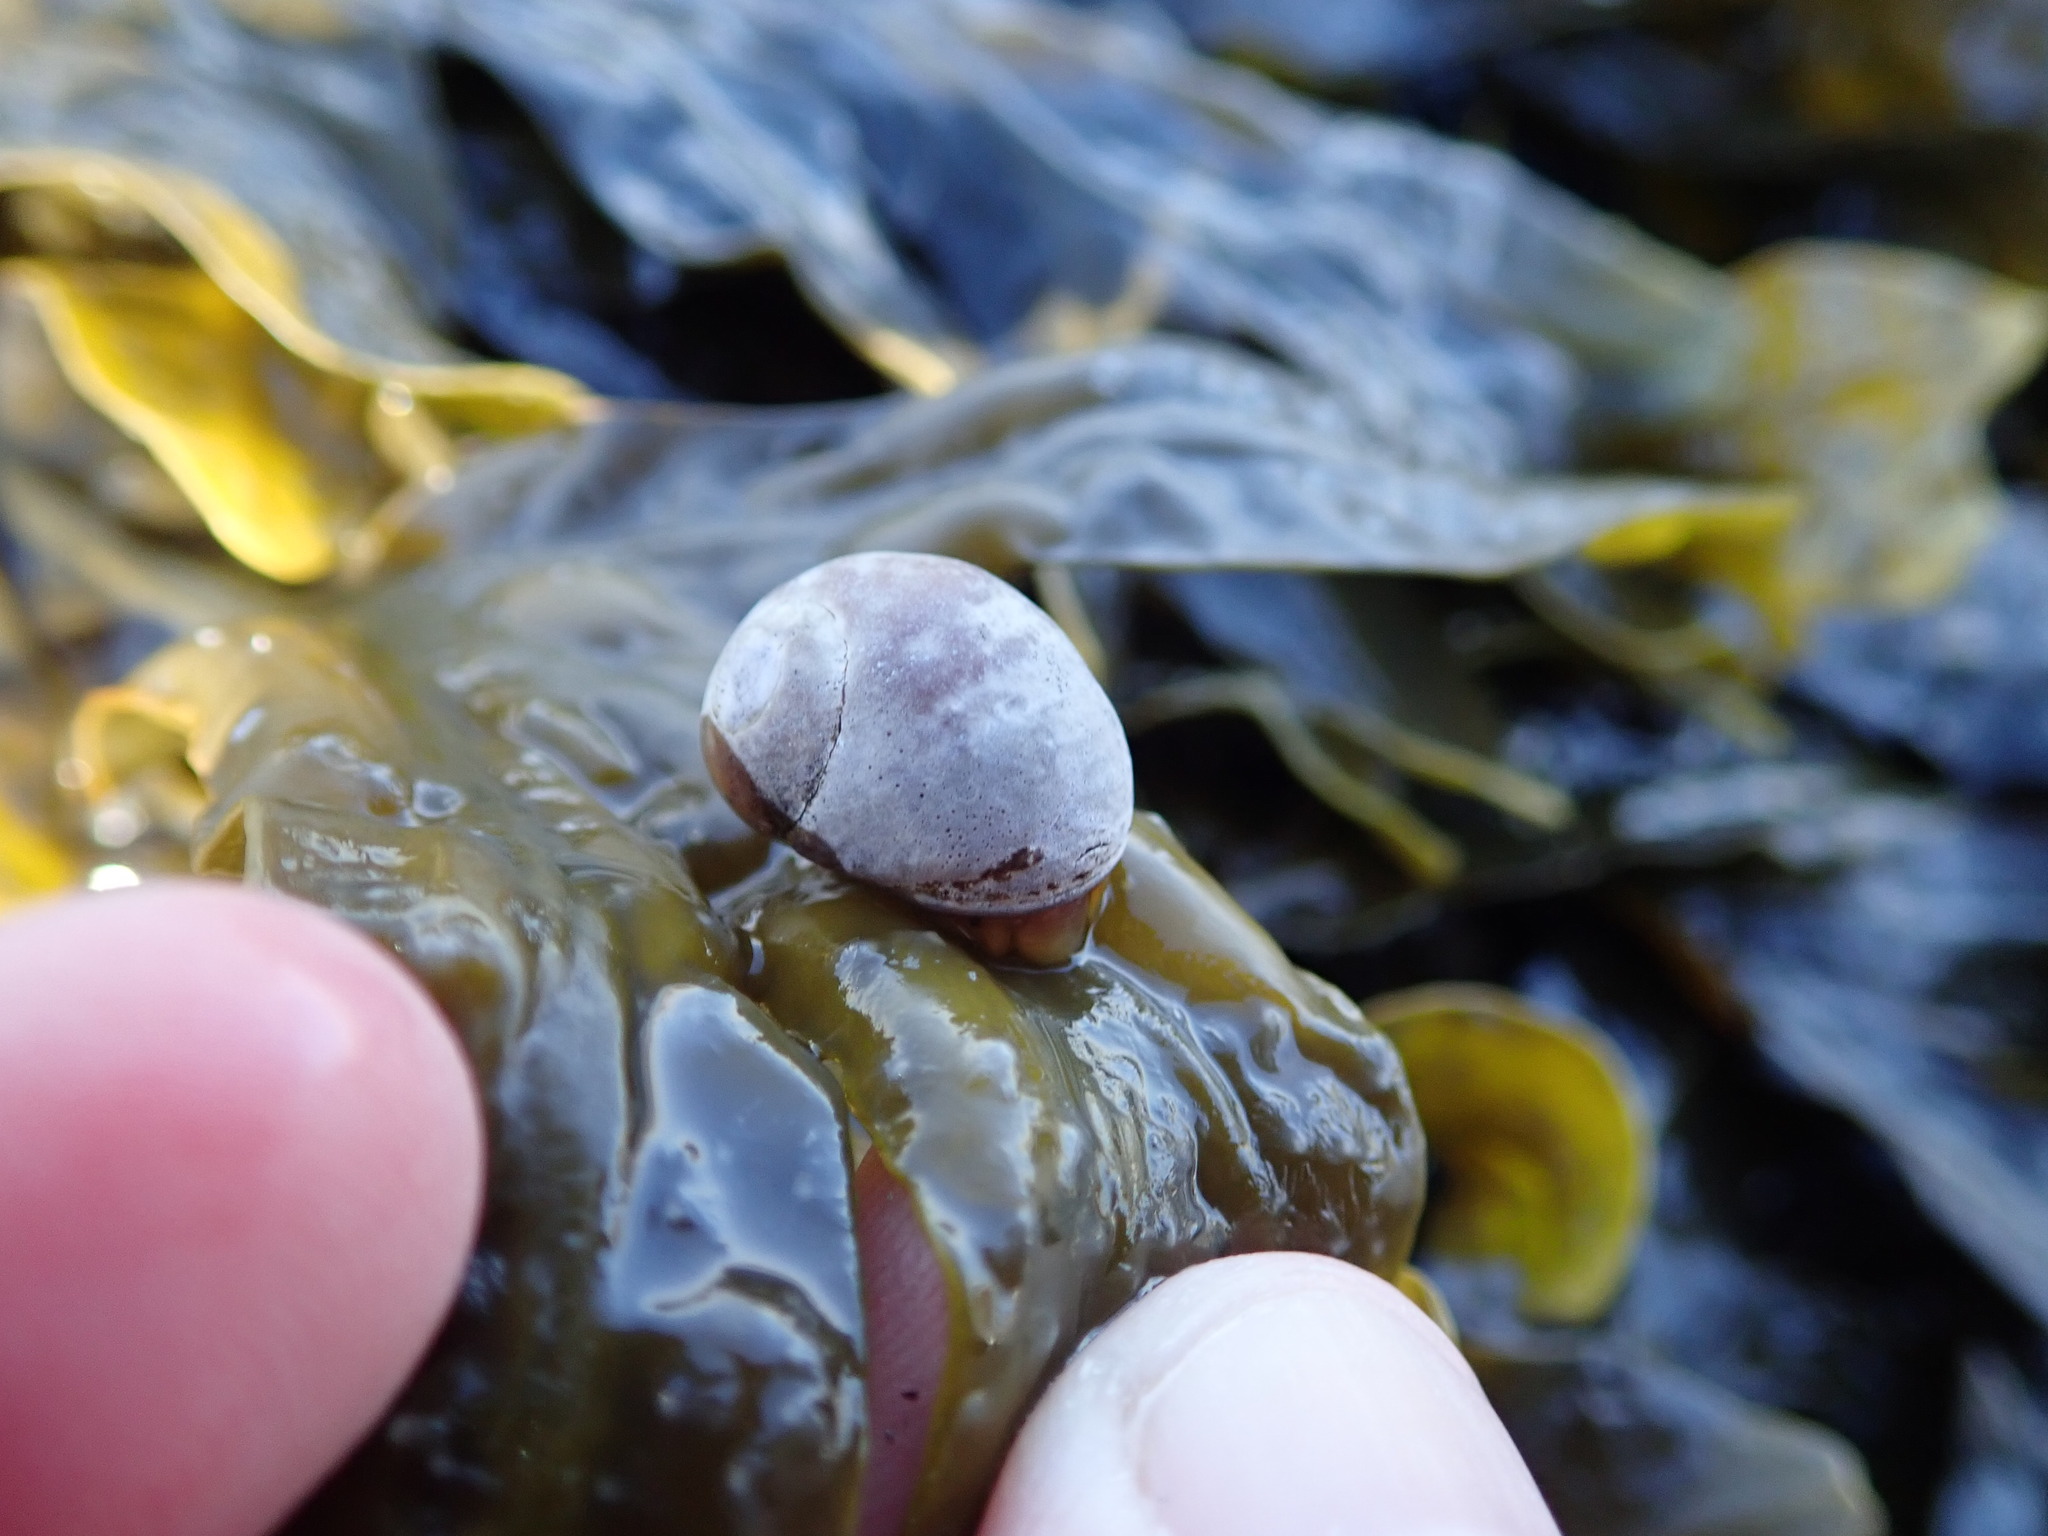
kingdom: Animalia
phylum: Mollusca
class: Gastropoda
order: Littorinimorpha
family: Littorinidae
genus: Littorina
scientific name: Littorina obtusata
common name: Flat periwinkle
